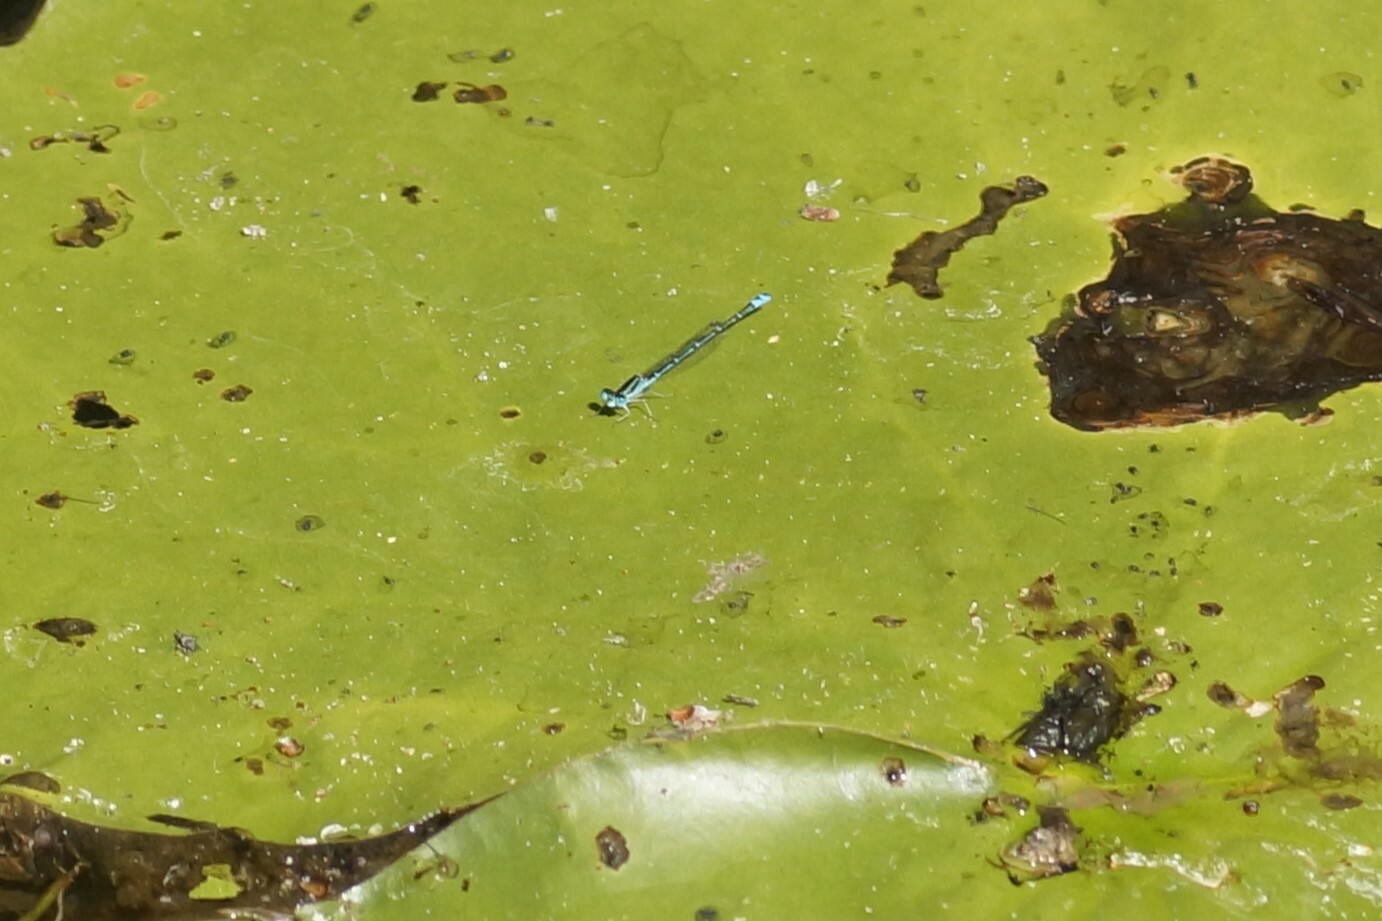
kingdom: Animalia
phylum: Arthropoda
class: Insecta
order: Odonata
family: Coenagrionidae
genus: Austroagrion
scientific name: Austroagrion exclamationis
